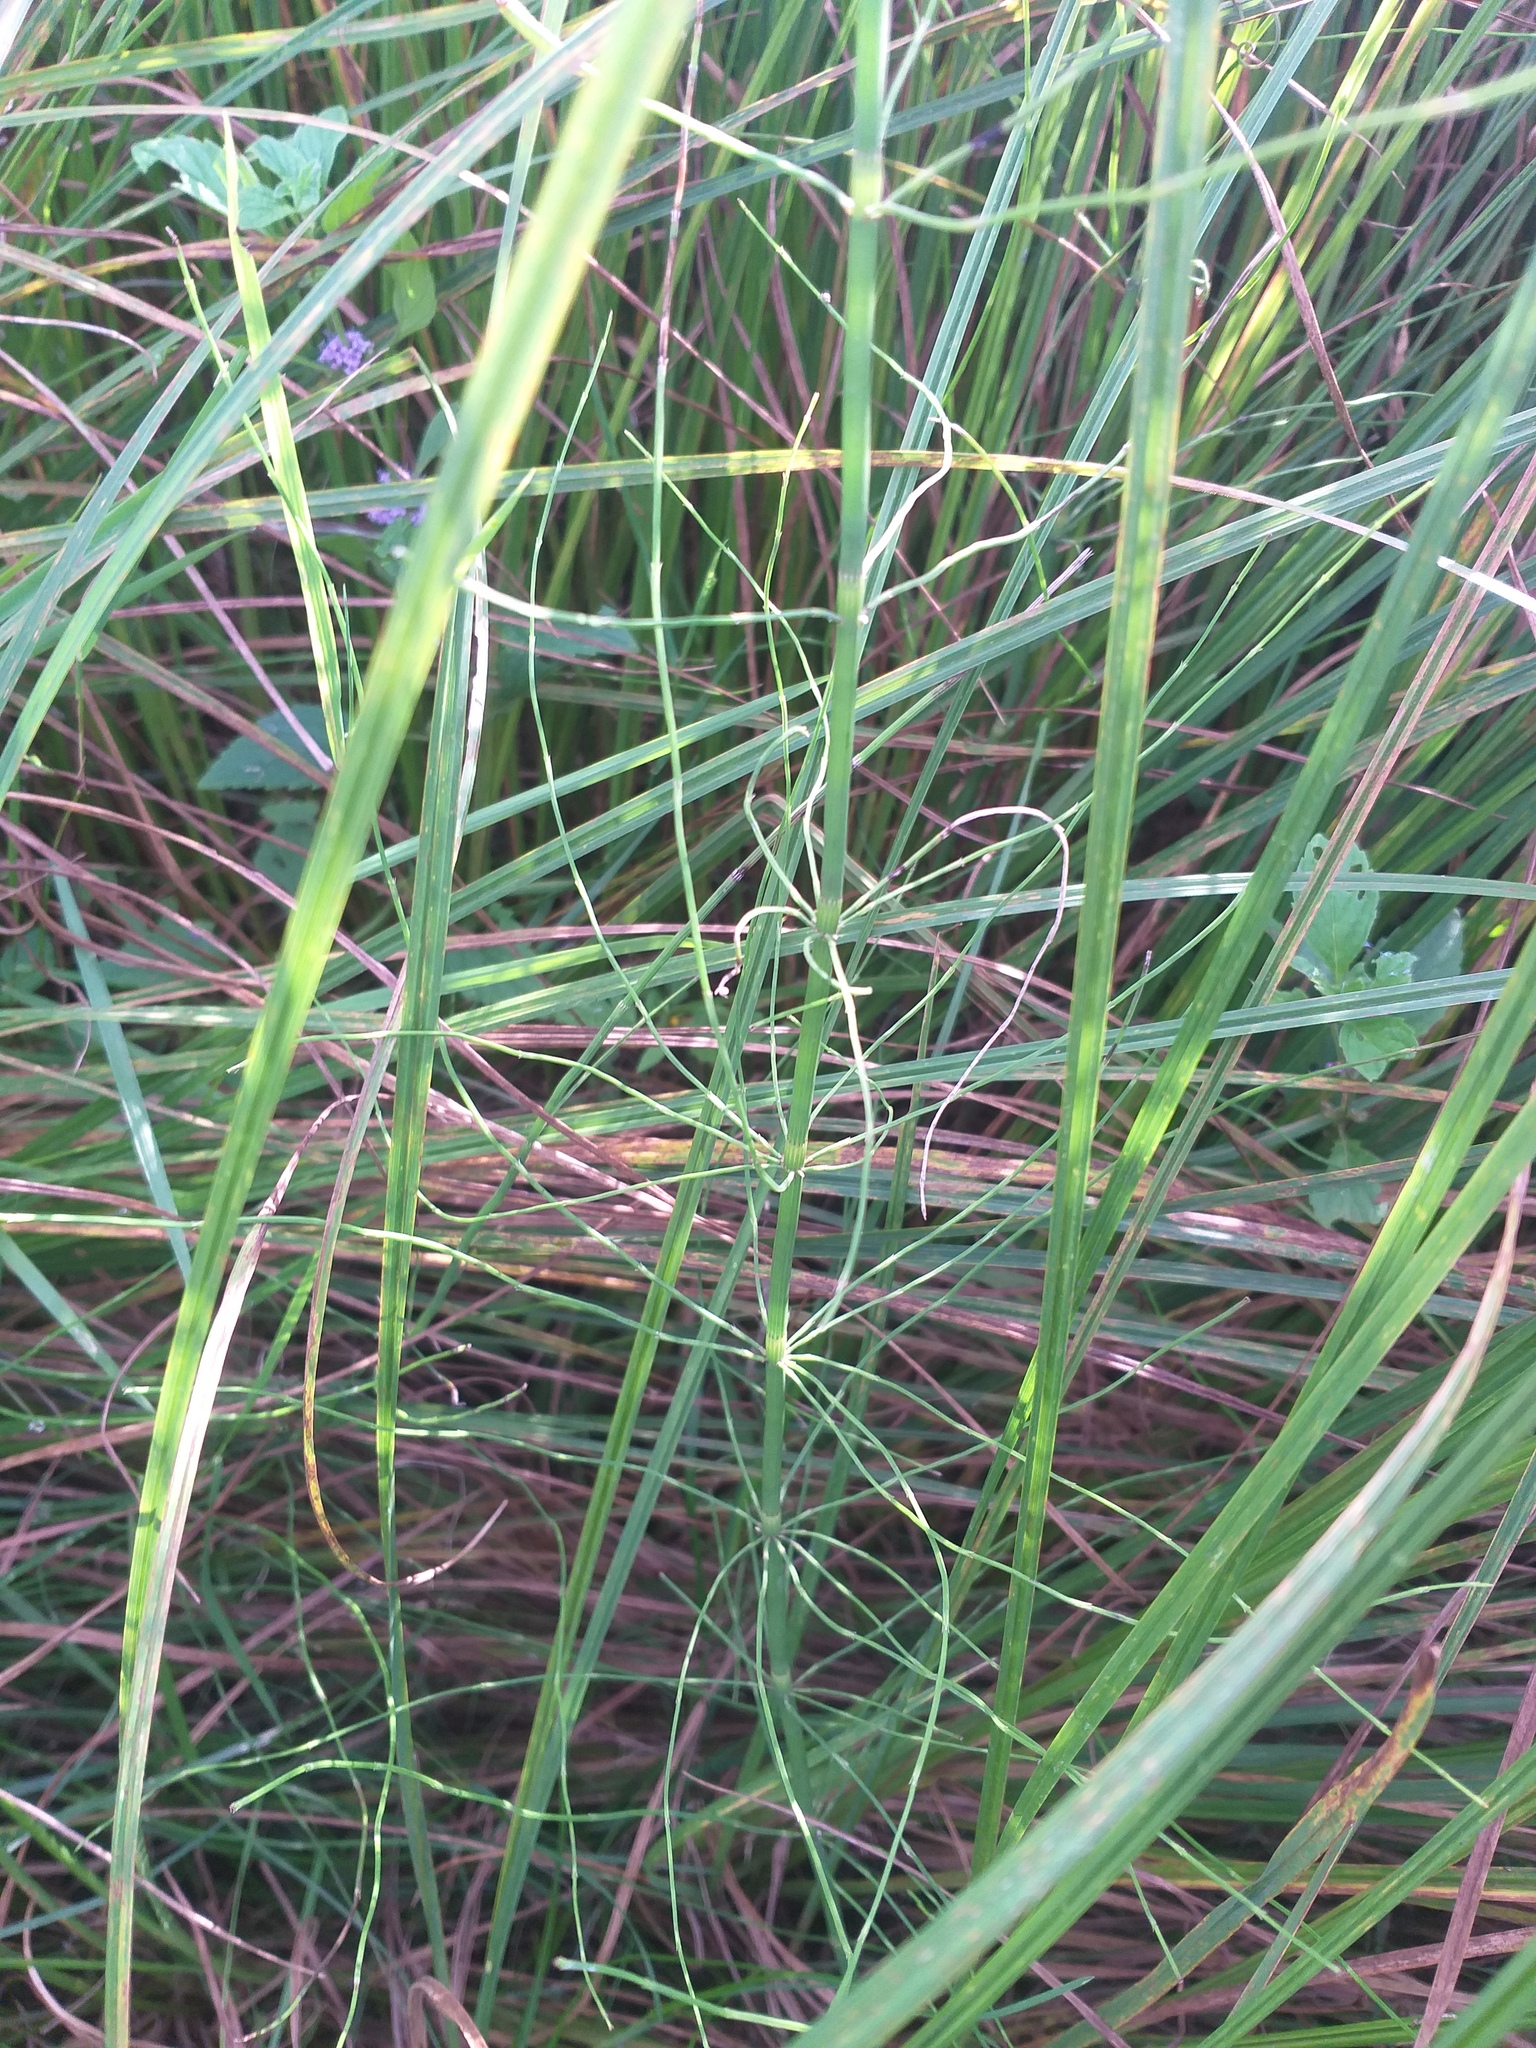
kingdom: Plantae
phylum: Tracheophyta
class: Polypodiopsida
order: Equisetales
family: Equisetaceae
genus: Equisetum
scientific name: Equisetum fluviatile
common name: Water horsetail
